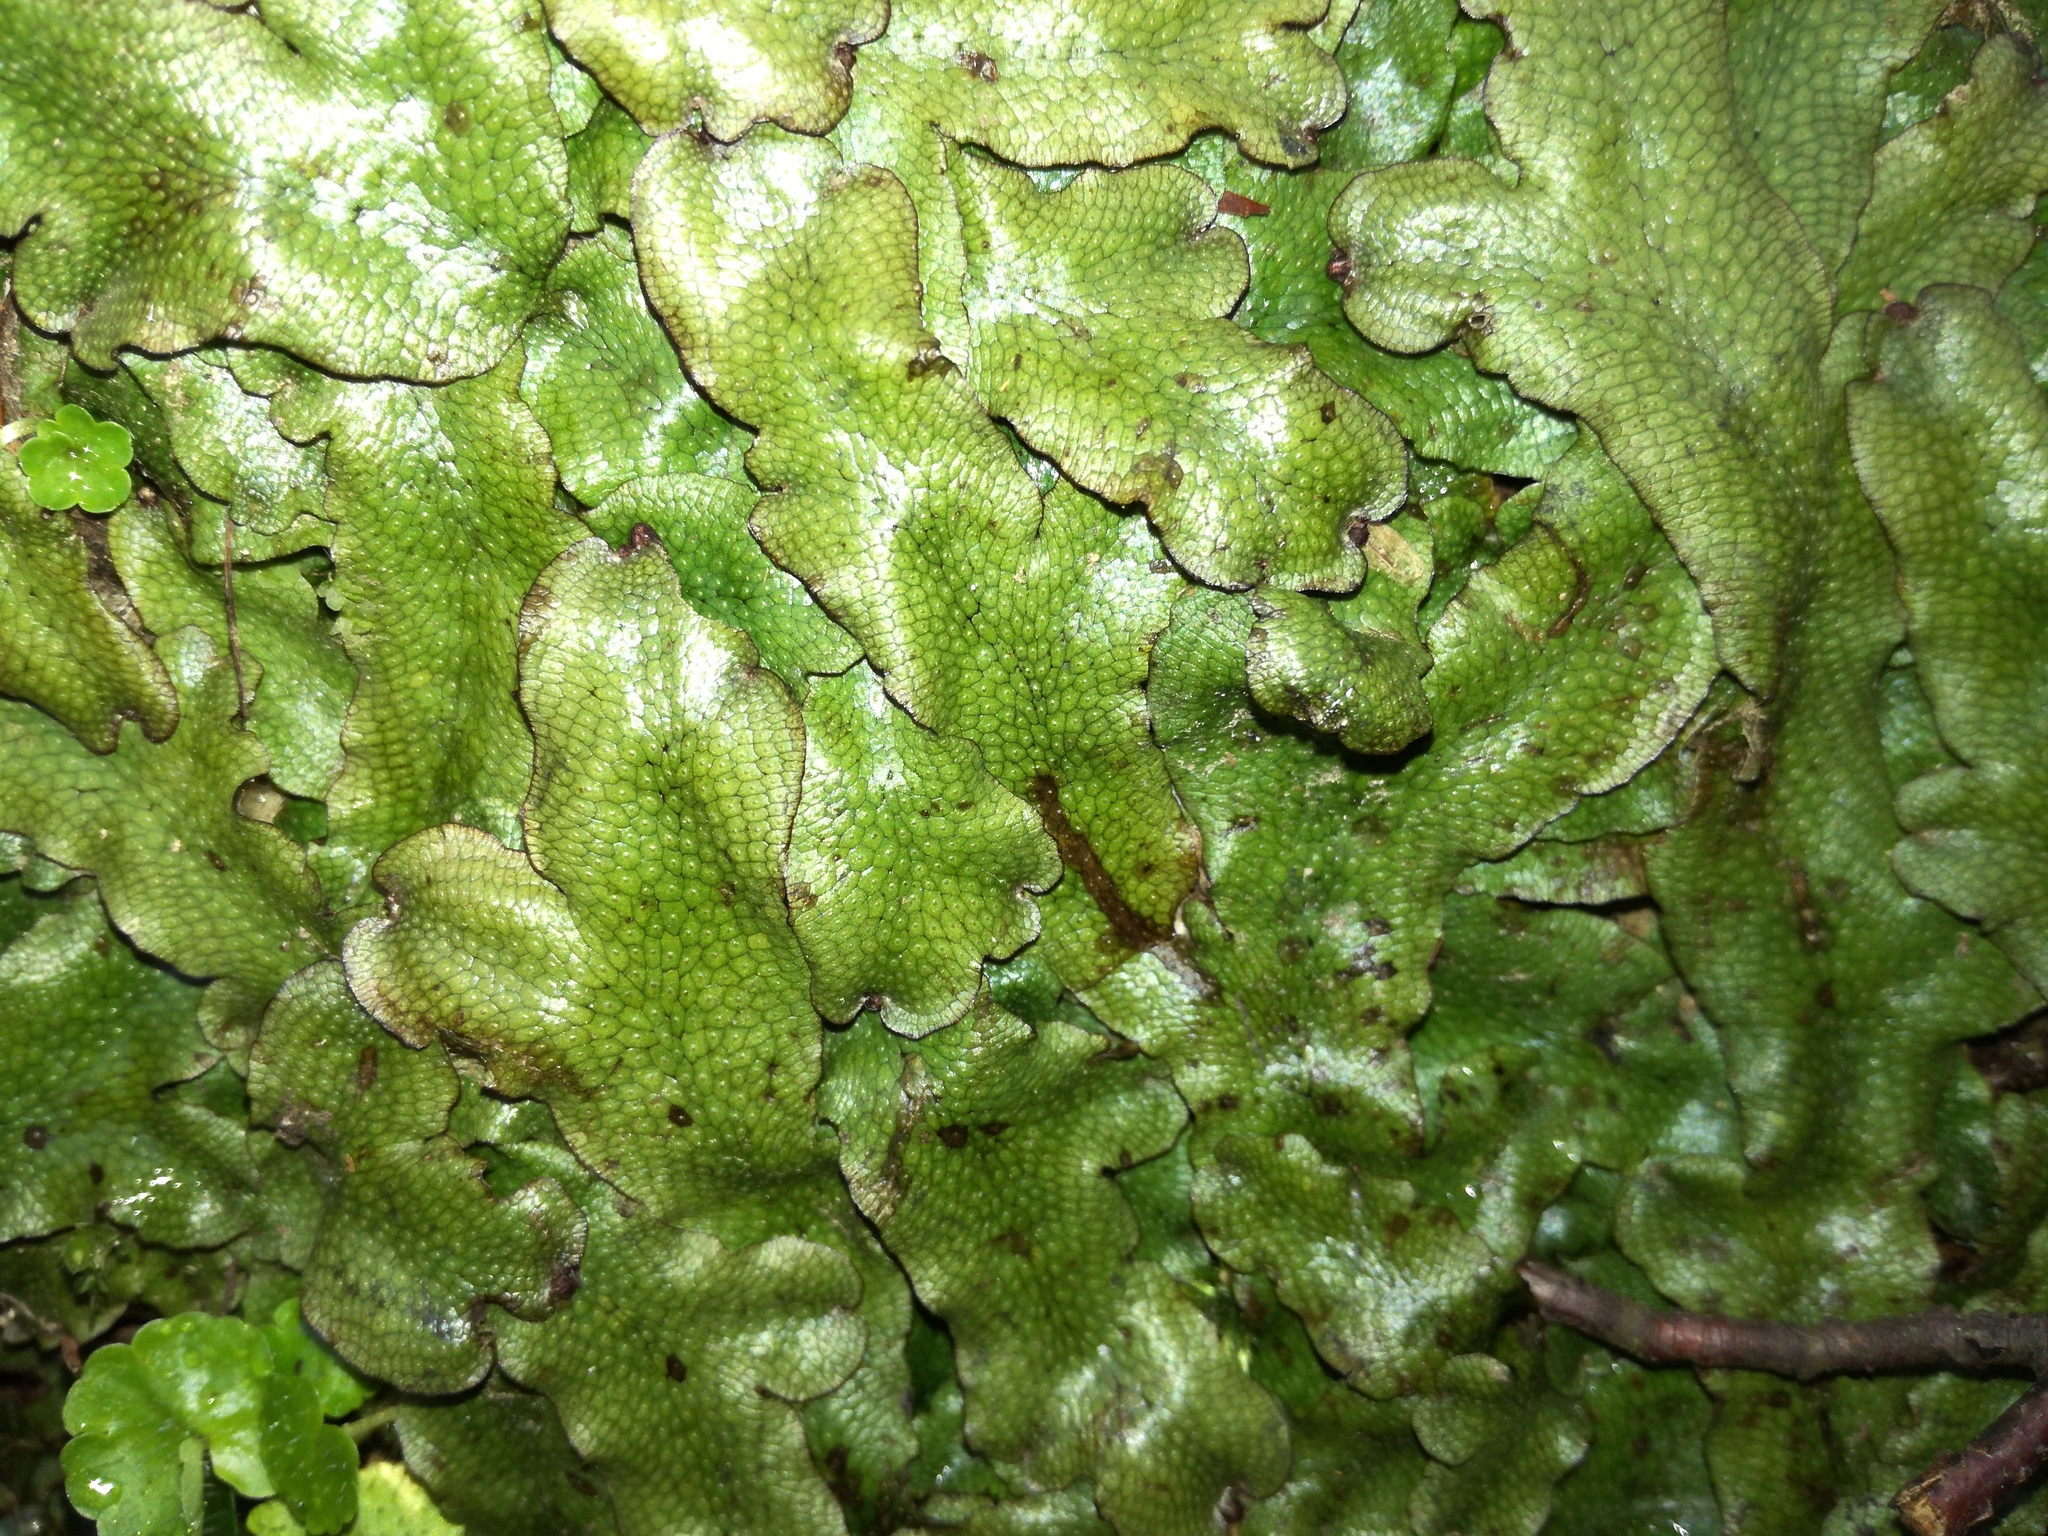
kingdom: Plantae
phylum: Marchantiophyta
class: Marchantiopsida
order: Marchantiales
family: Conocephalaceae
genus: Conocephalum
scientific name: Conocephalum salebrosum
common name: Cat-tongue liverwort
